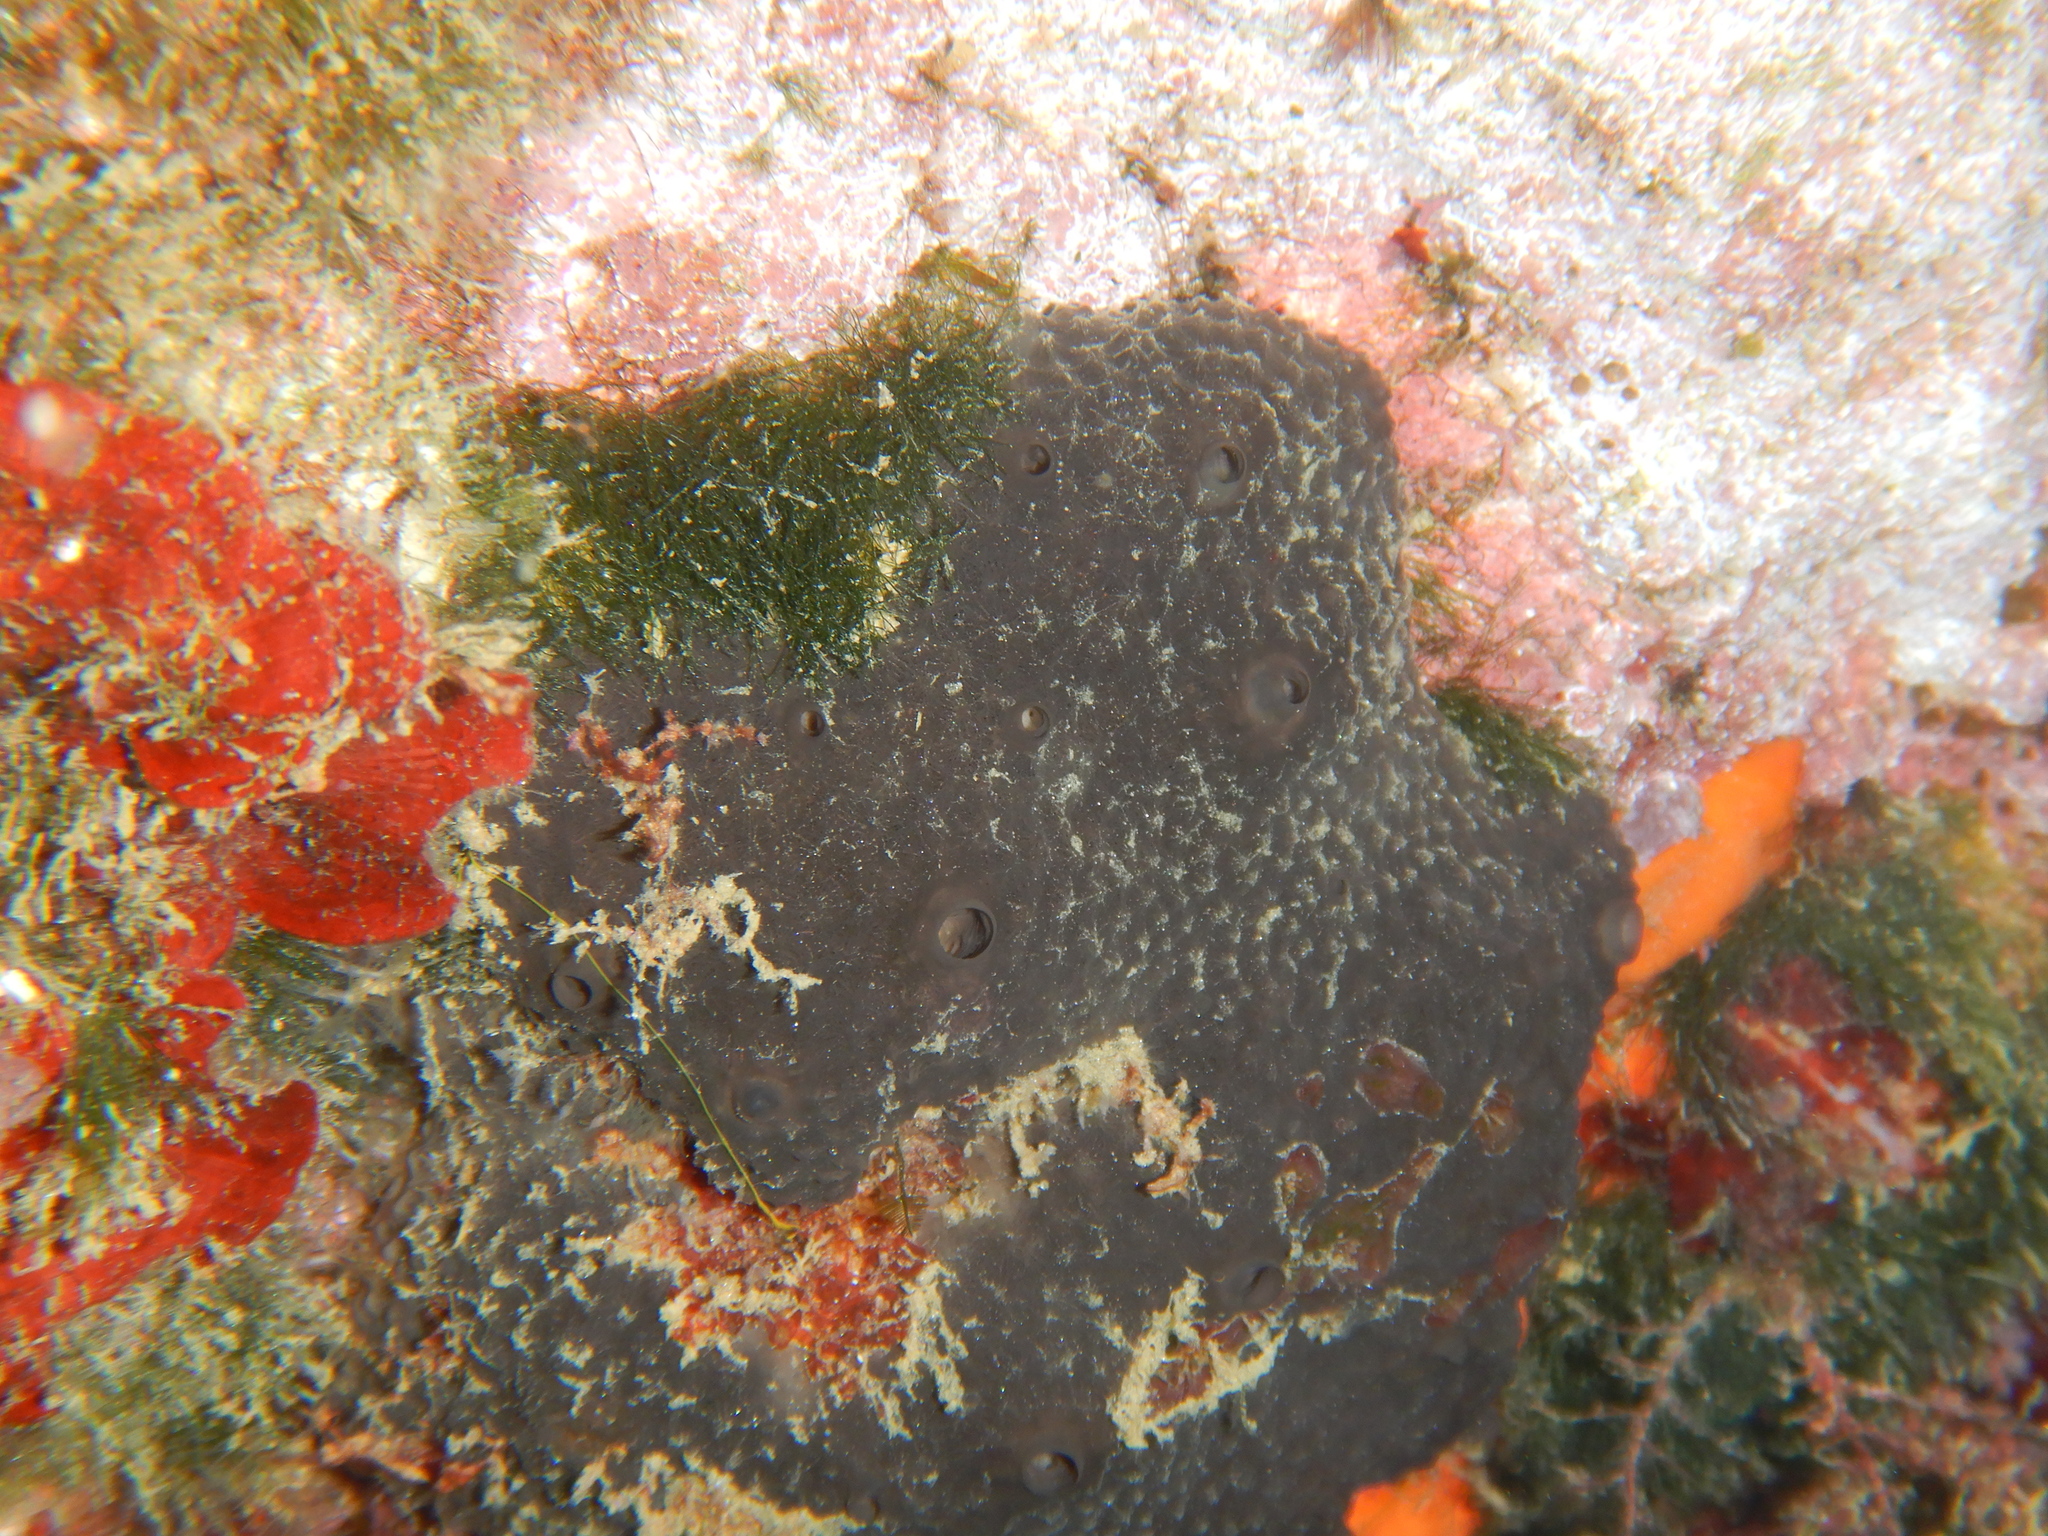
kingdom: Animalia
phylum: Porifera
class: Demospongiae
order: Dictyoceratida
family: Thorectidae
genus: Scalarispongia
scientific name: Scalarispongia scalaris
